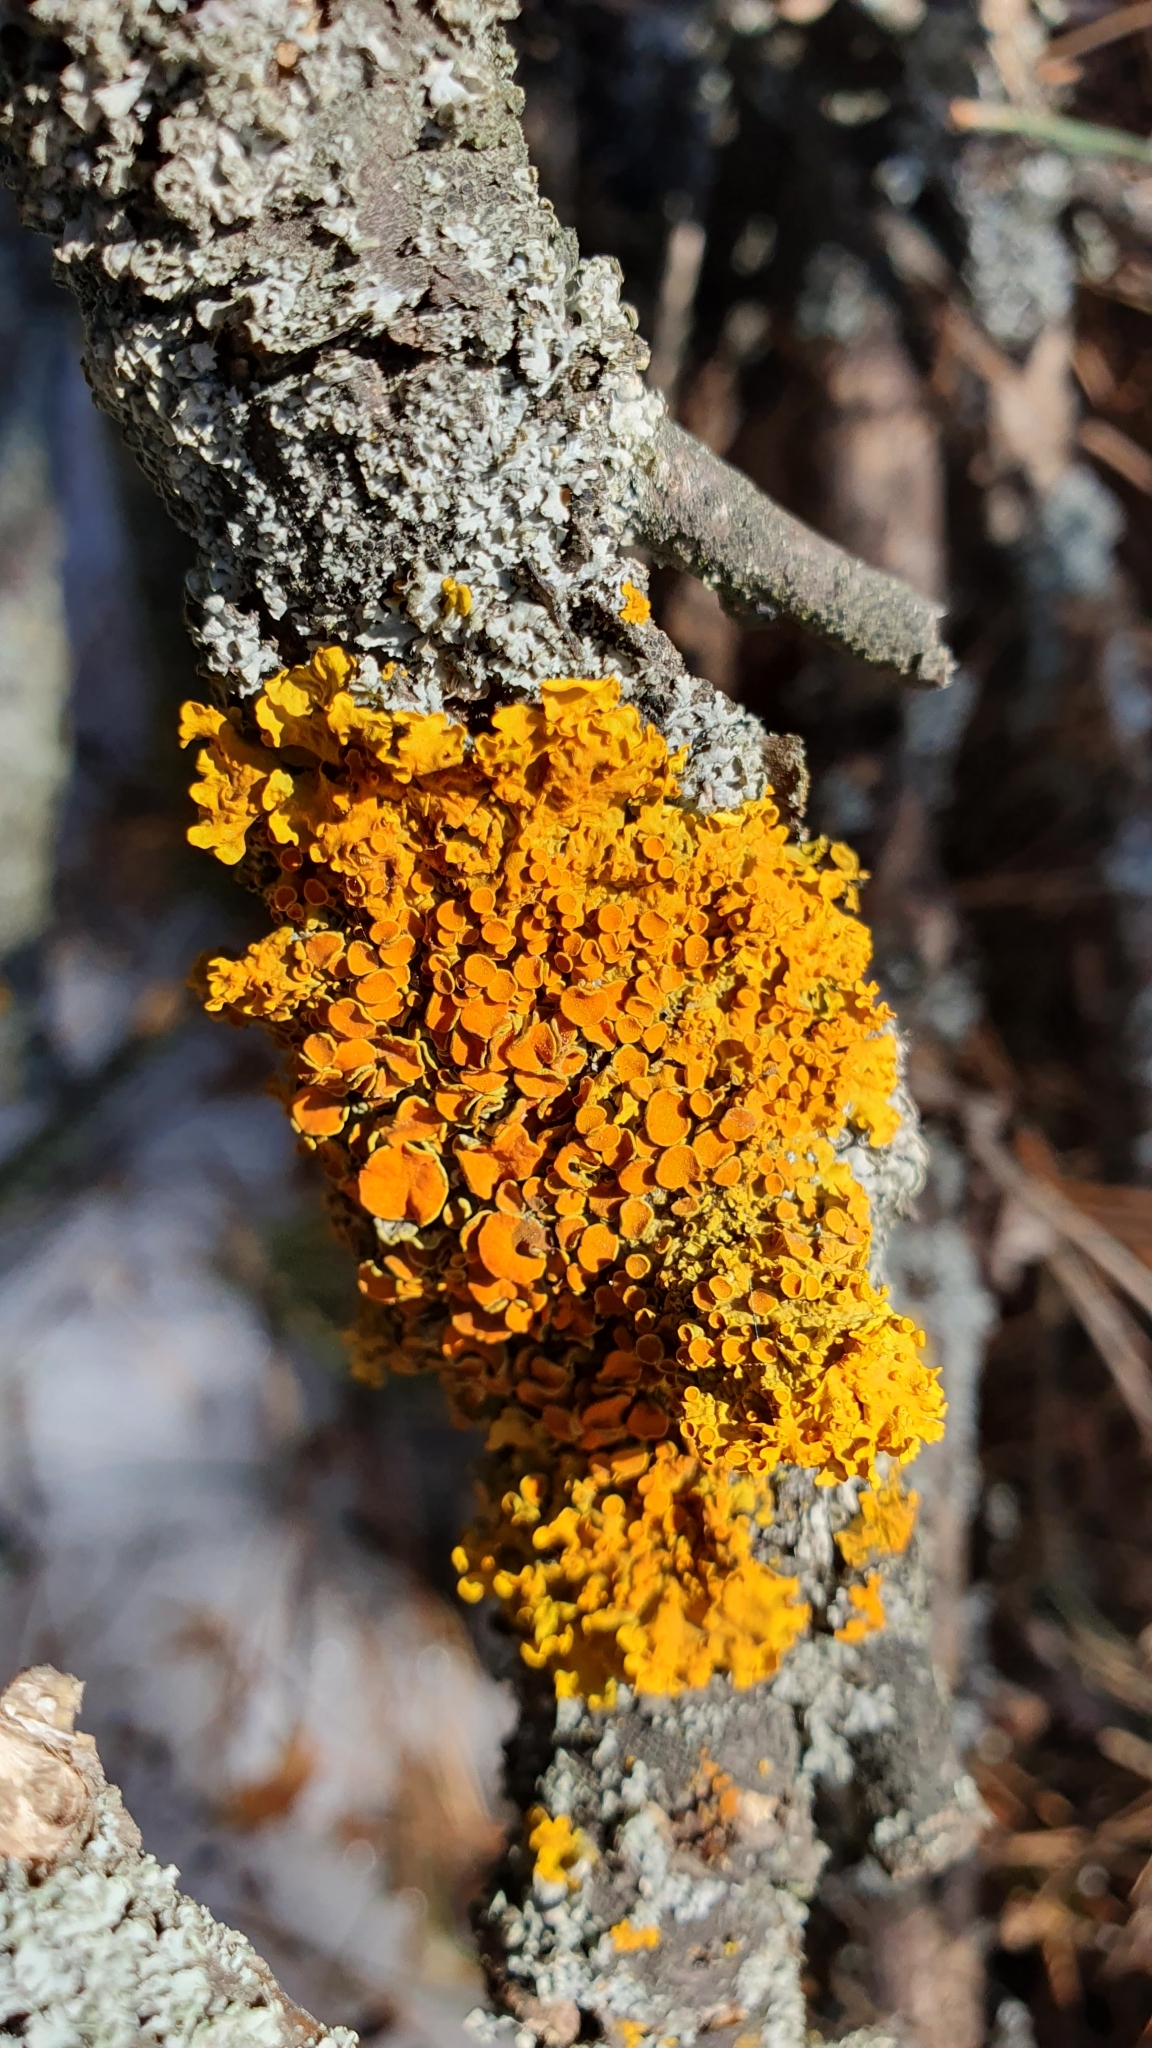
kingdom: Fungi
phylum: Ascomycota
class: Lecanoromycetes
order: Teloschistales
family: Teloschistaceae
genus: Xanthoria
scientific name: Xanthoria parietina
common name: Common orange lichen
